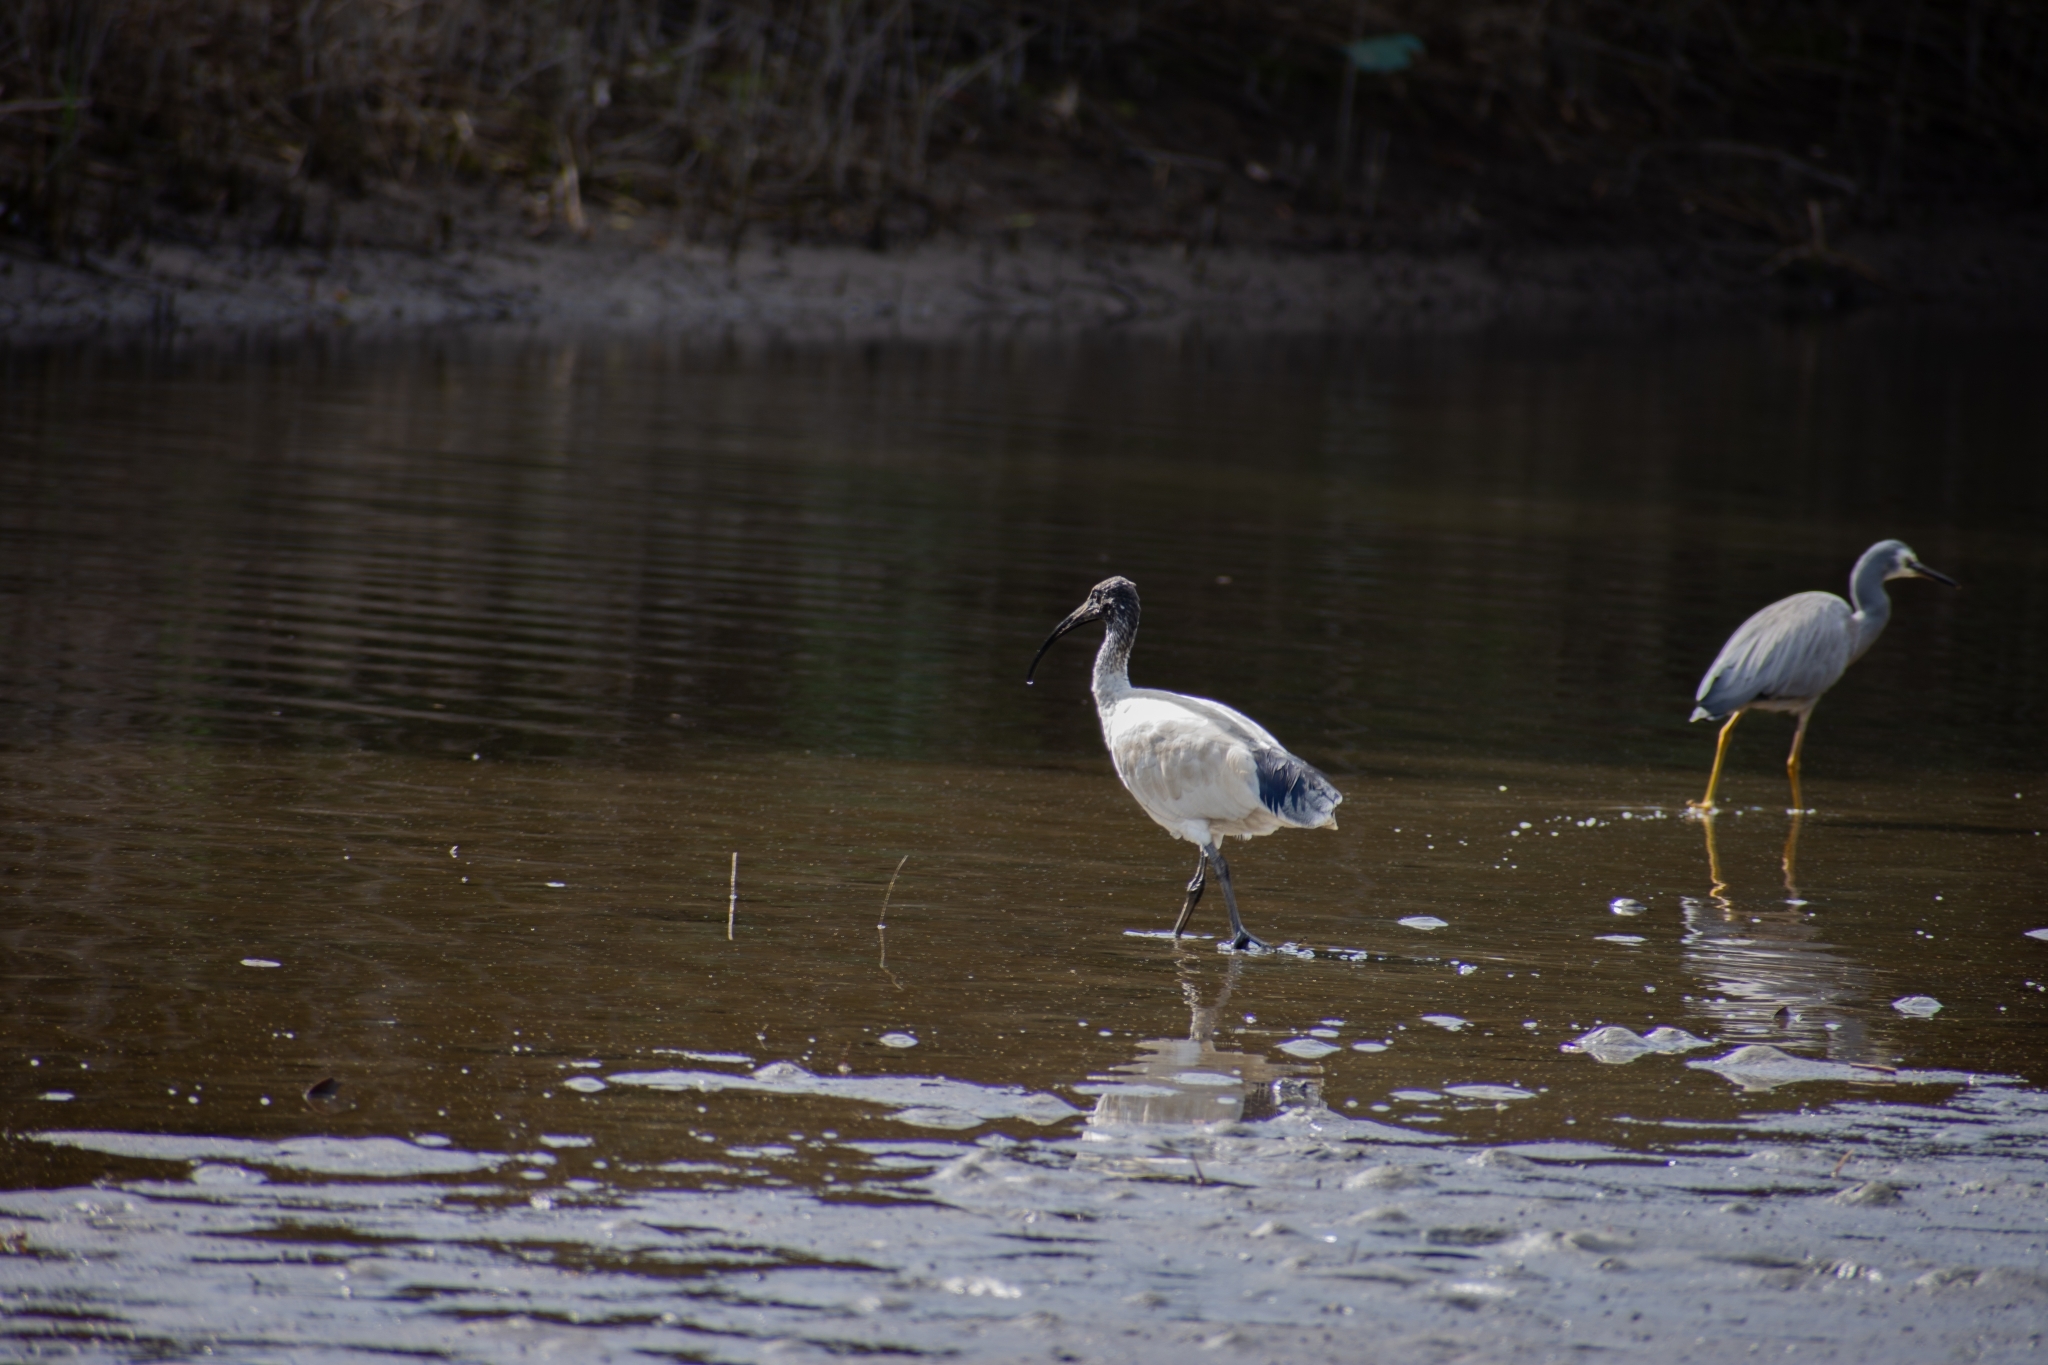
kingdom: Animalia
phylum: Chordata
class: Aves
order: Pelecaniformes
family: Threskiornithidae
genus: Threskiornis
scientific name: Threskiornis molucca
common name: Australian white ibis
